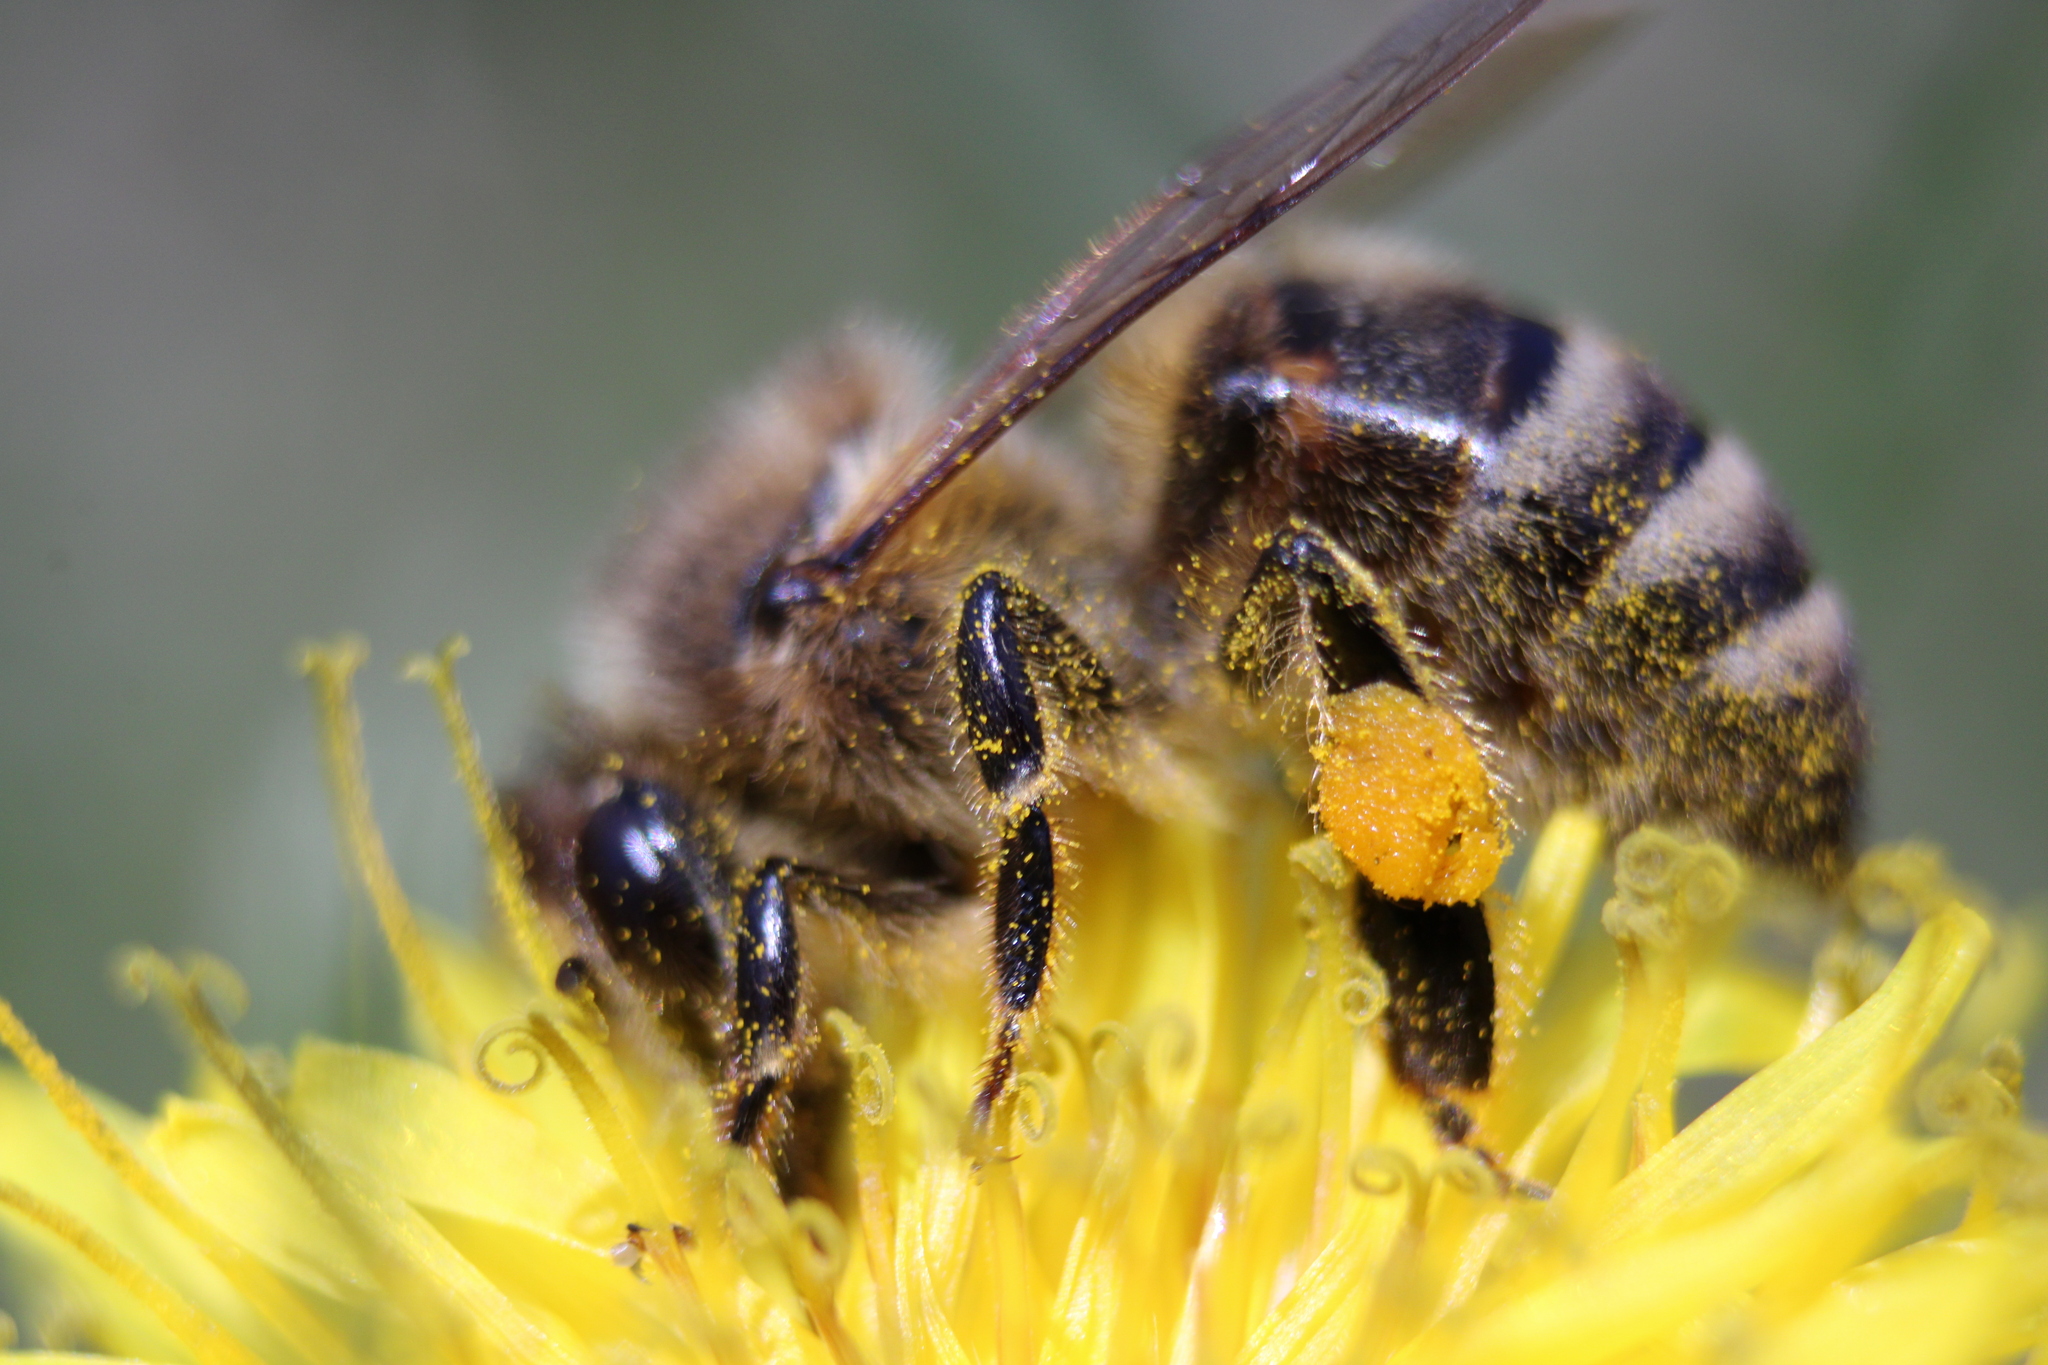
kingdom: Animalia
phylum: Arthropoda
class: Insecta
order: Hymenoptera
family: Apidae
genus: Apis
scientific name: Apis mellifera
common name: Honey bee
